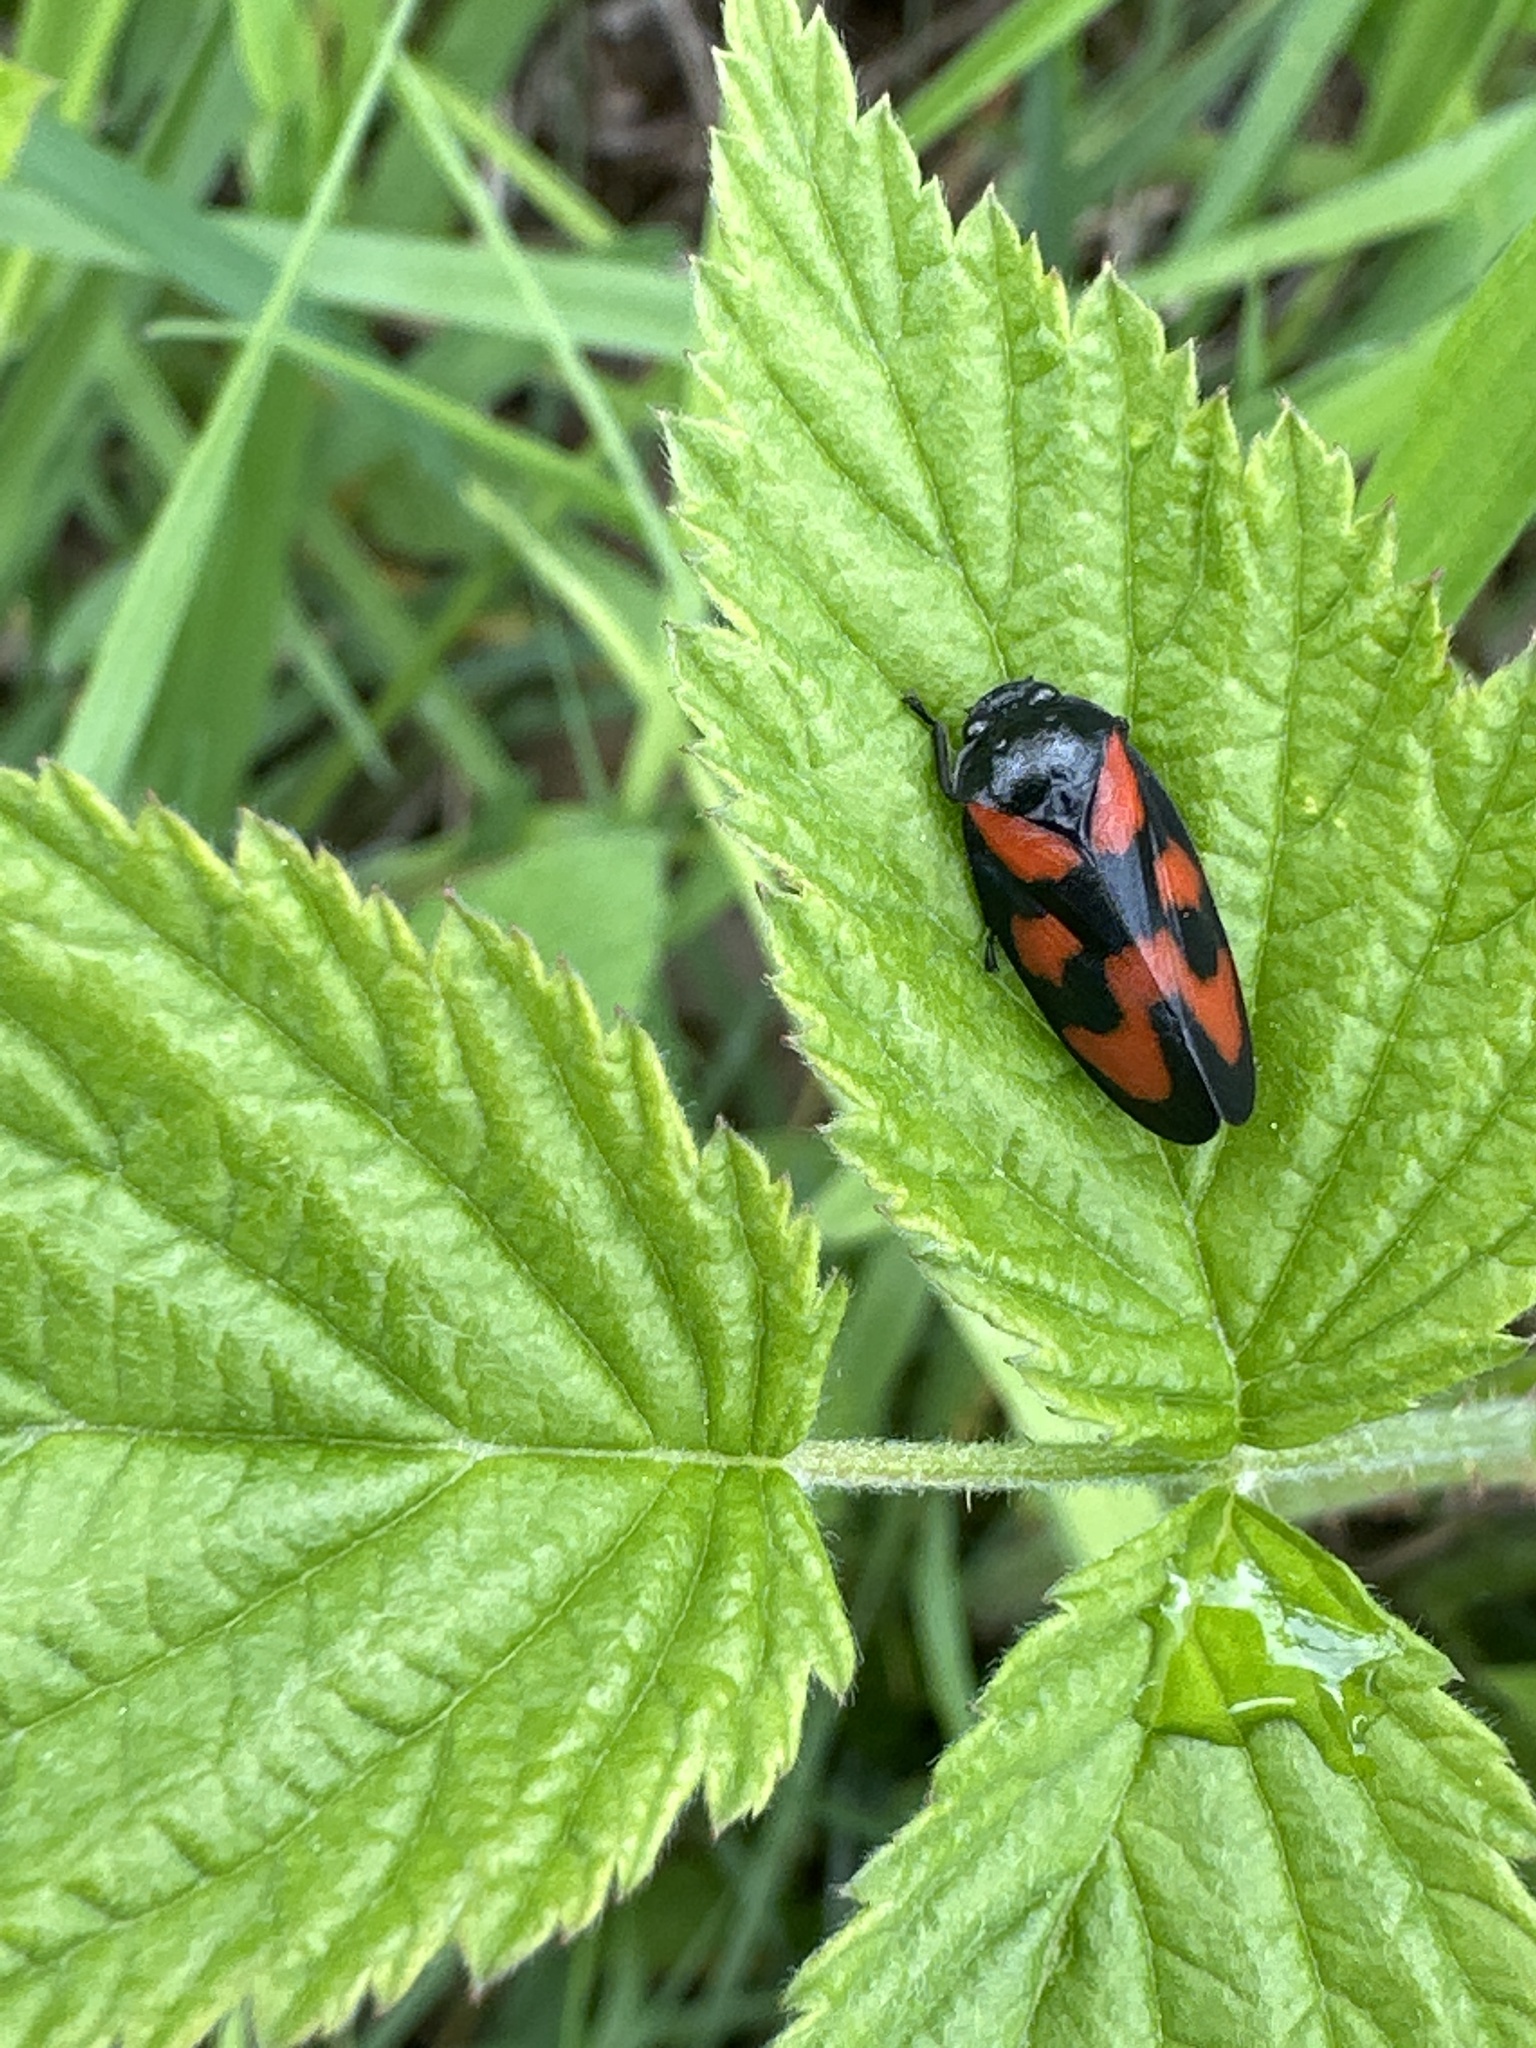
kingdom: Animalia
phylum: Arthropoda
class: Insecta
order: Hemiptera
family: Cercopidae
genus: Cercopis
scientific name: Cercopis vulnerata
